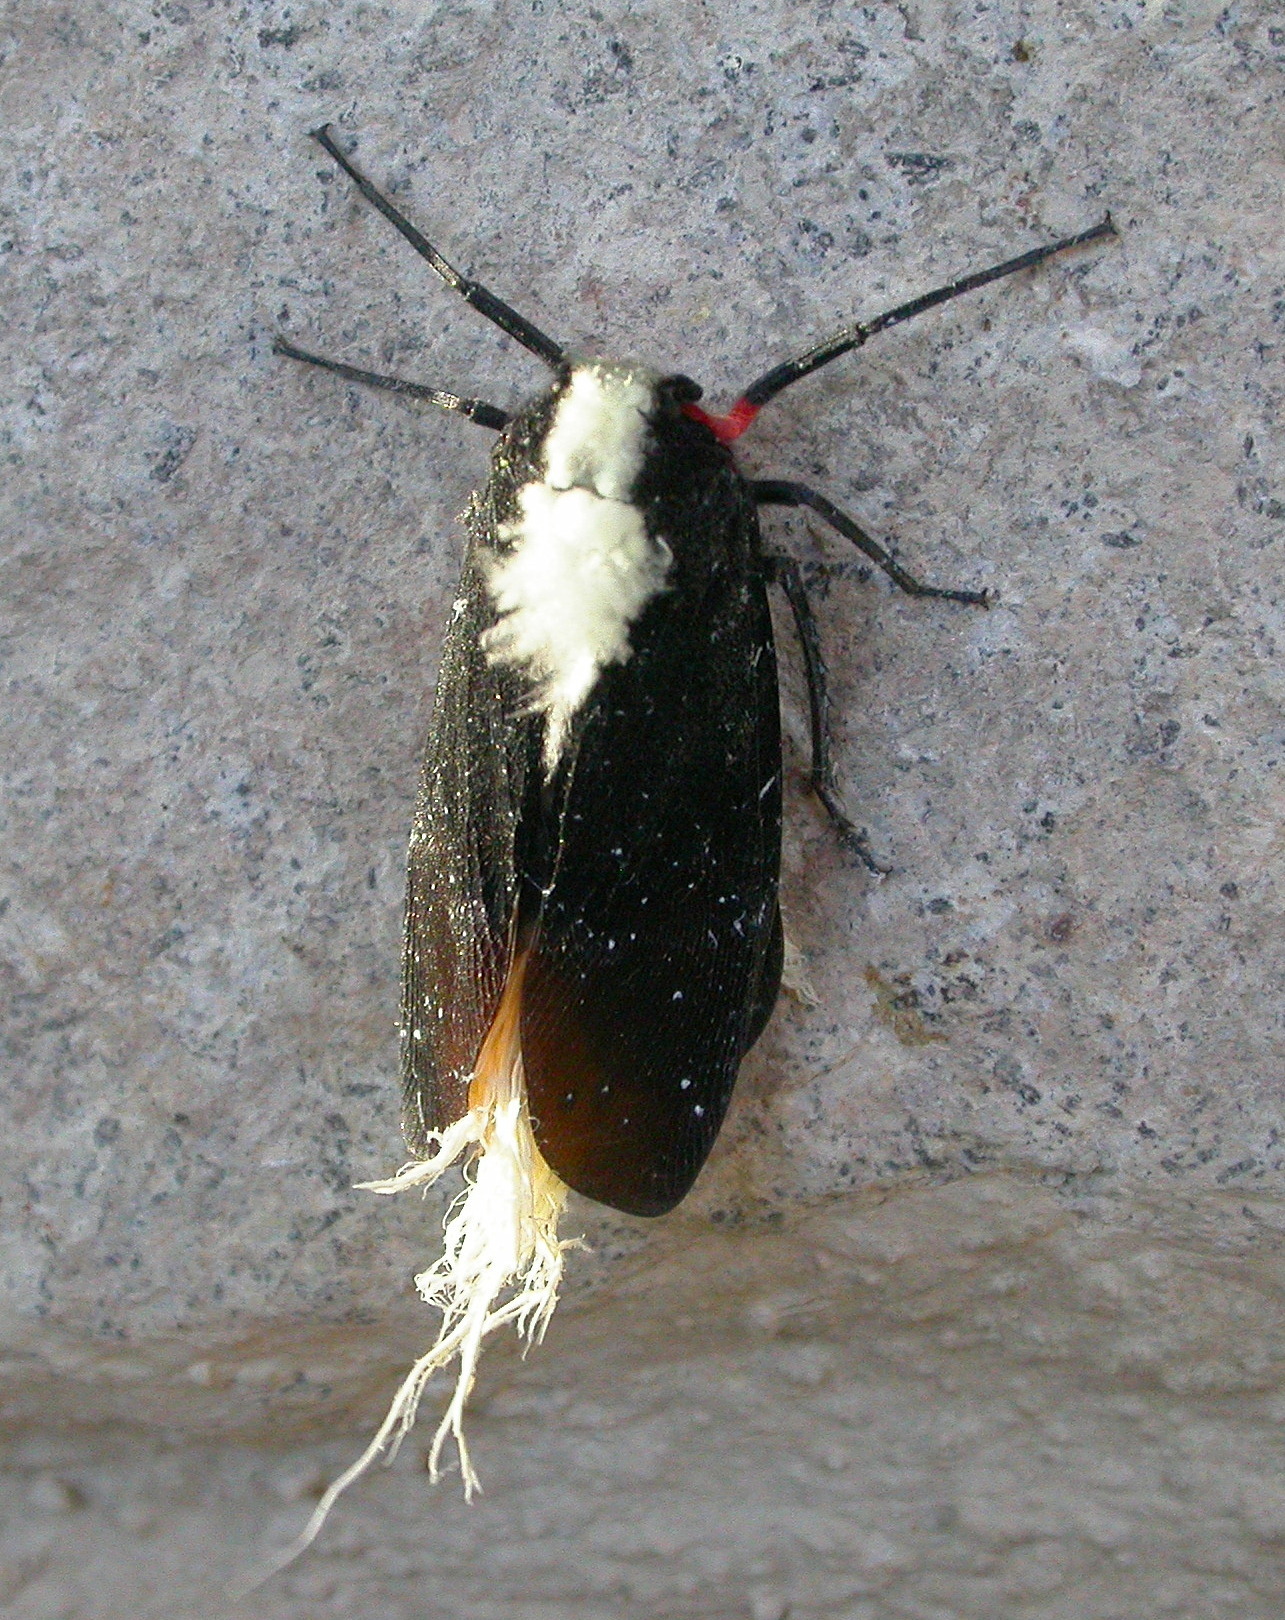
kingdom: Animalia
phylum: Arthropoda
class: Insecta
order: Hemiptera
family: Fulgoridae
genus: Menenia
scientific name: Menenia terebrifera
